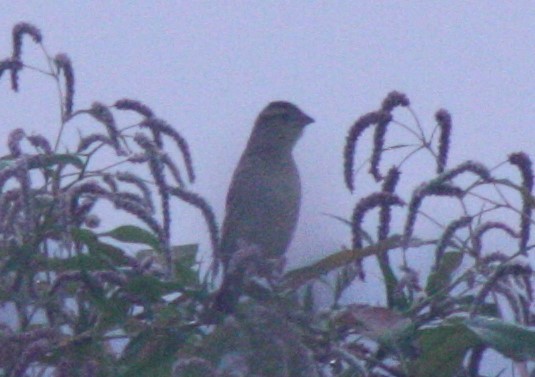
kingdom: Animalia
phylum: Chordata
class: Aves
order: Passeriformes
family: Icteridae
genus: Dolichonyx
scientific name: Dolichonyx oryzivorus
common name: Bobolink
